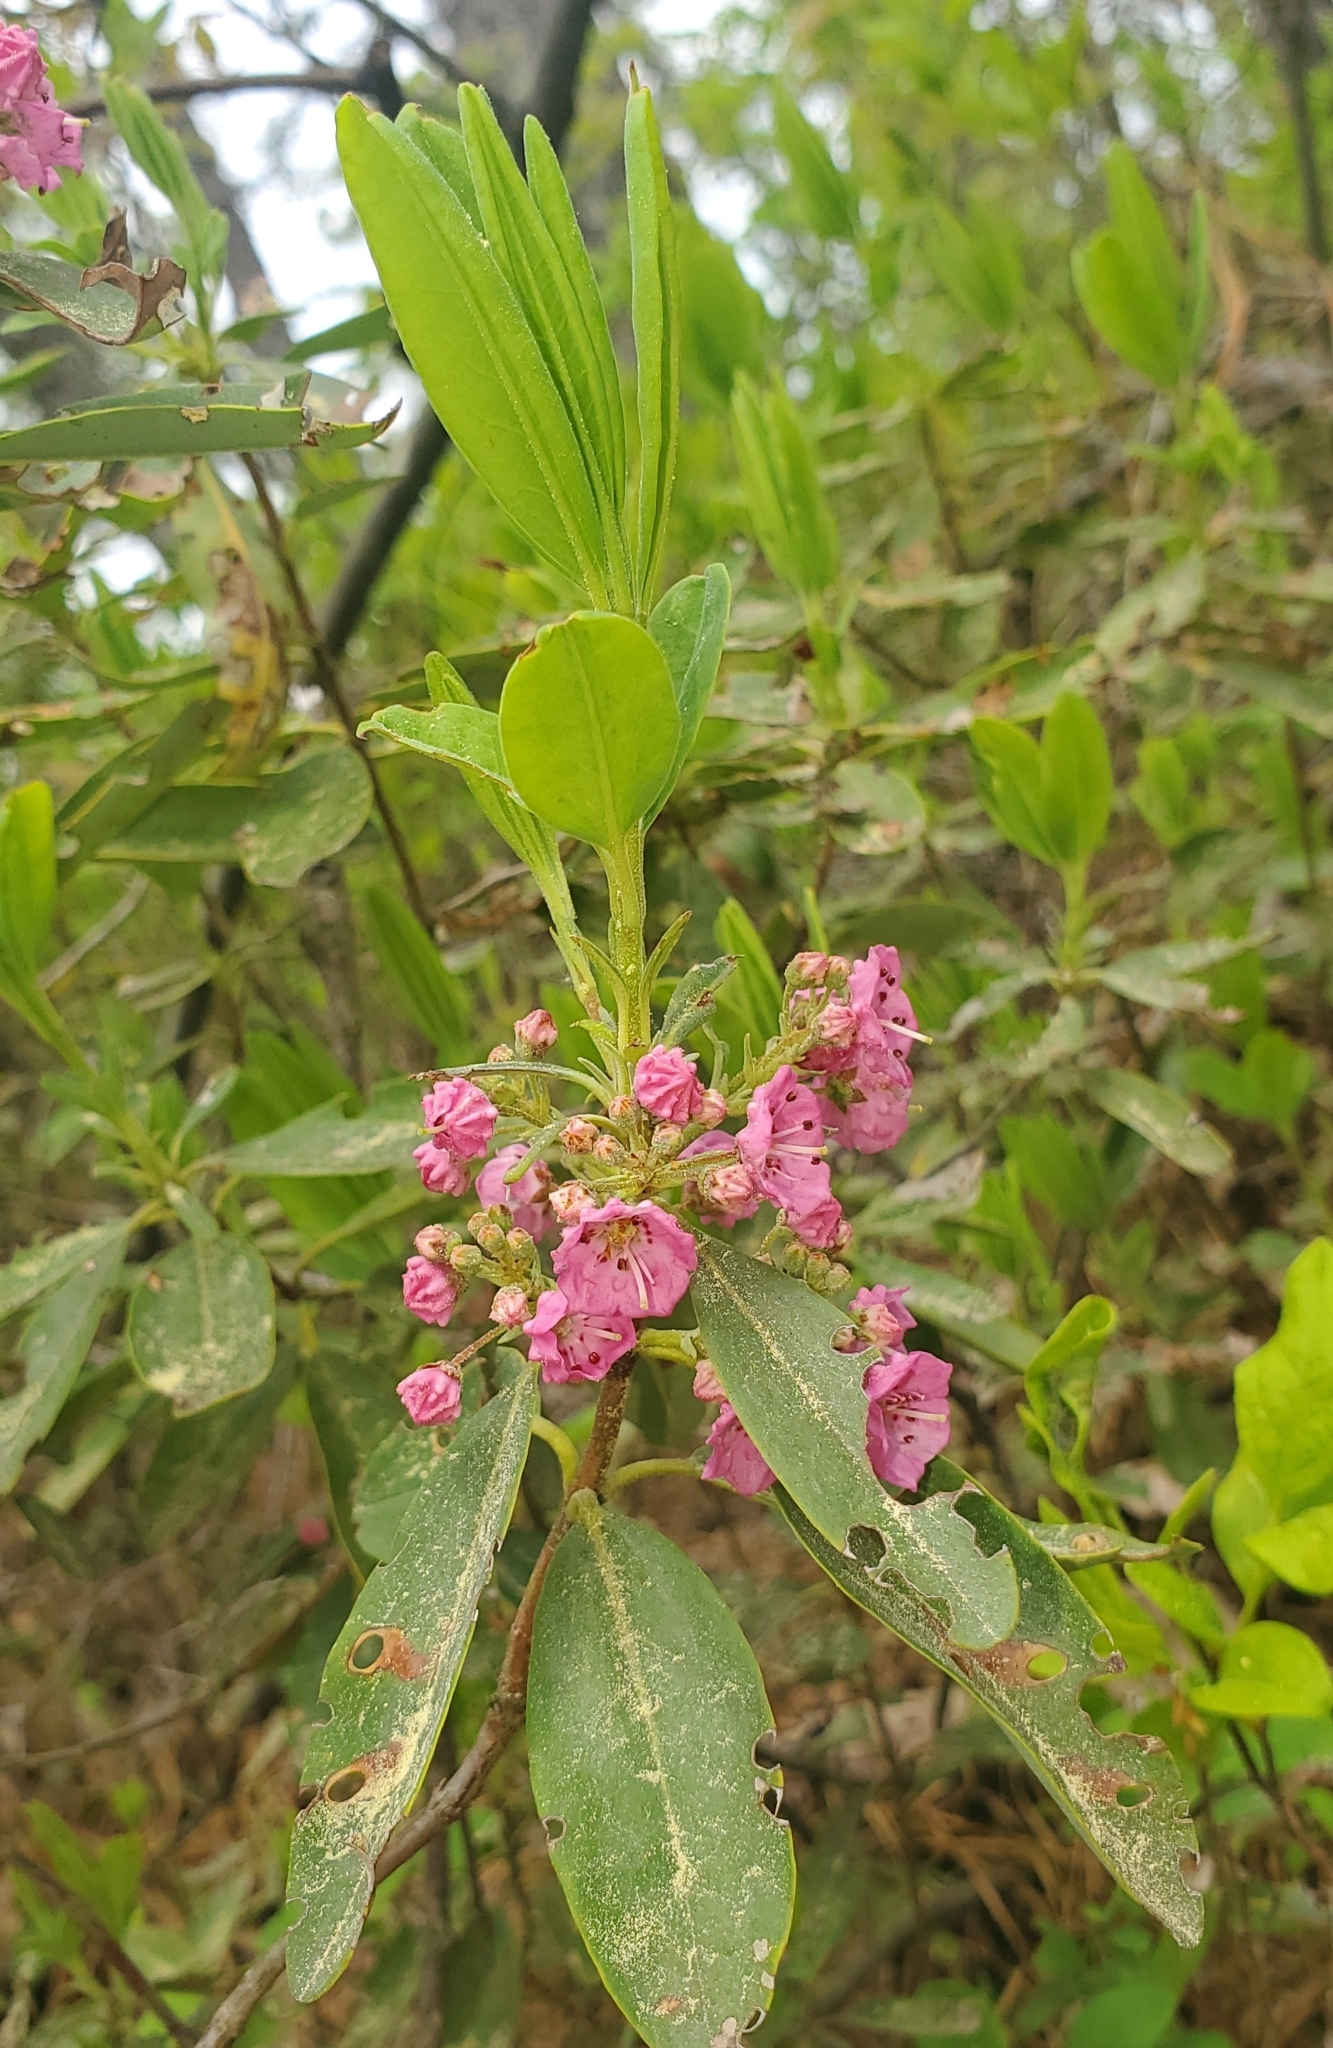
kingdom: Plantae
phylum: Tracheophyta
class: Magnoliopsida
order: Ericales
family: Ericaceae
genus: Kalmia
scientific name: Kalmia angustifolia
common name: Sheep-laurel
